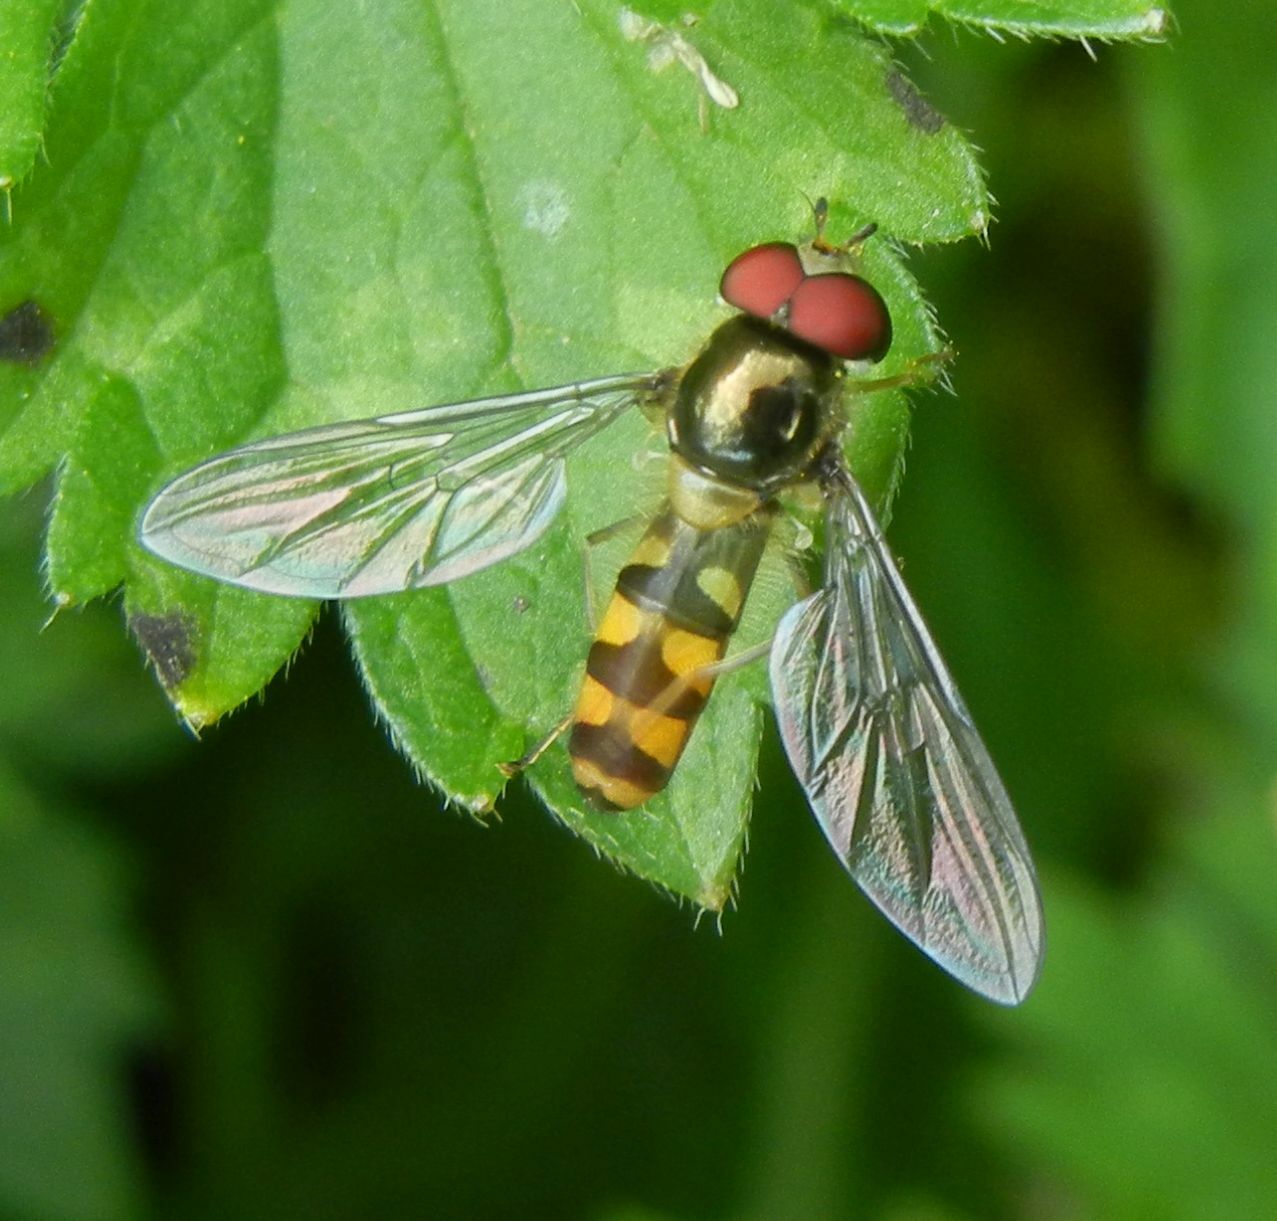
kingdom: Animalia
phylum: Arthropoda
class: Insecta
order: Diptera
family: Syrphidae
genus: Meliscaeva
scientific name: Meliscaeva auricollis
